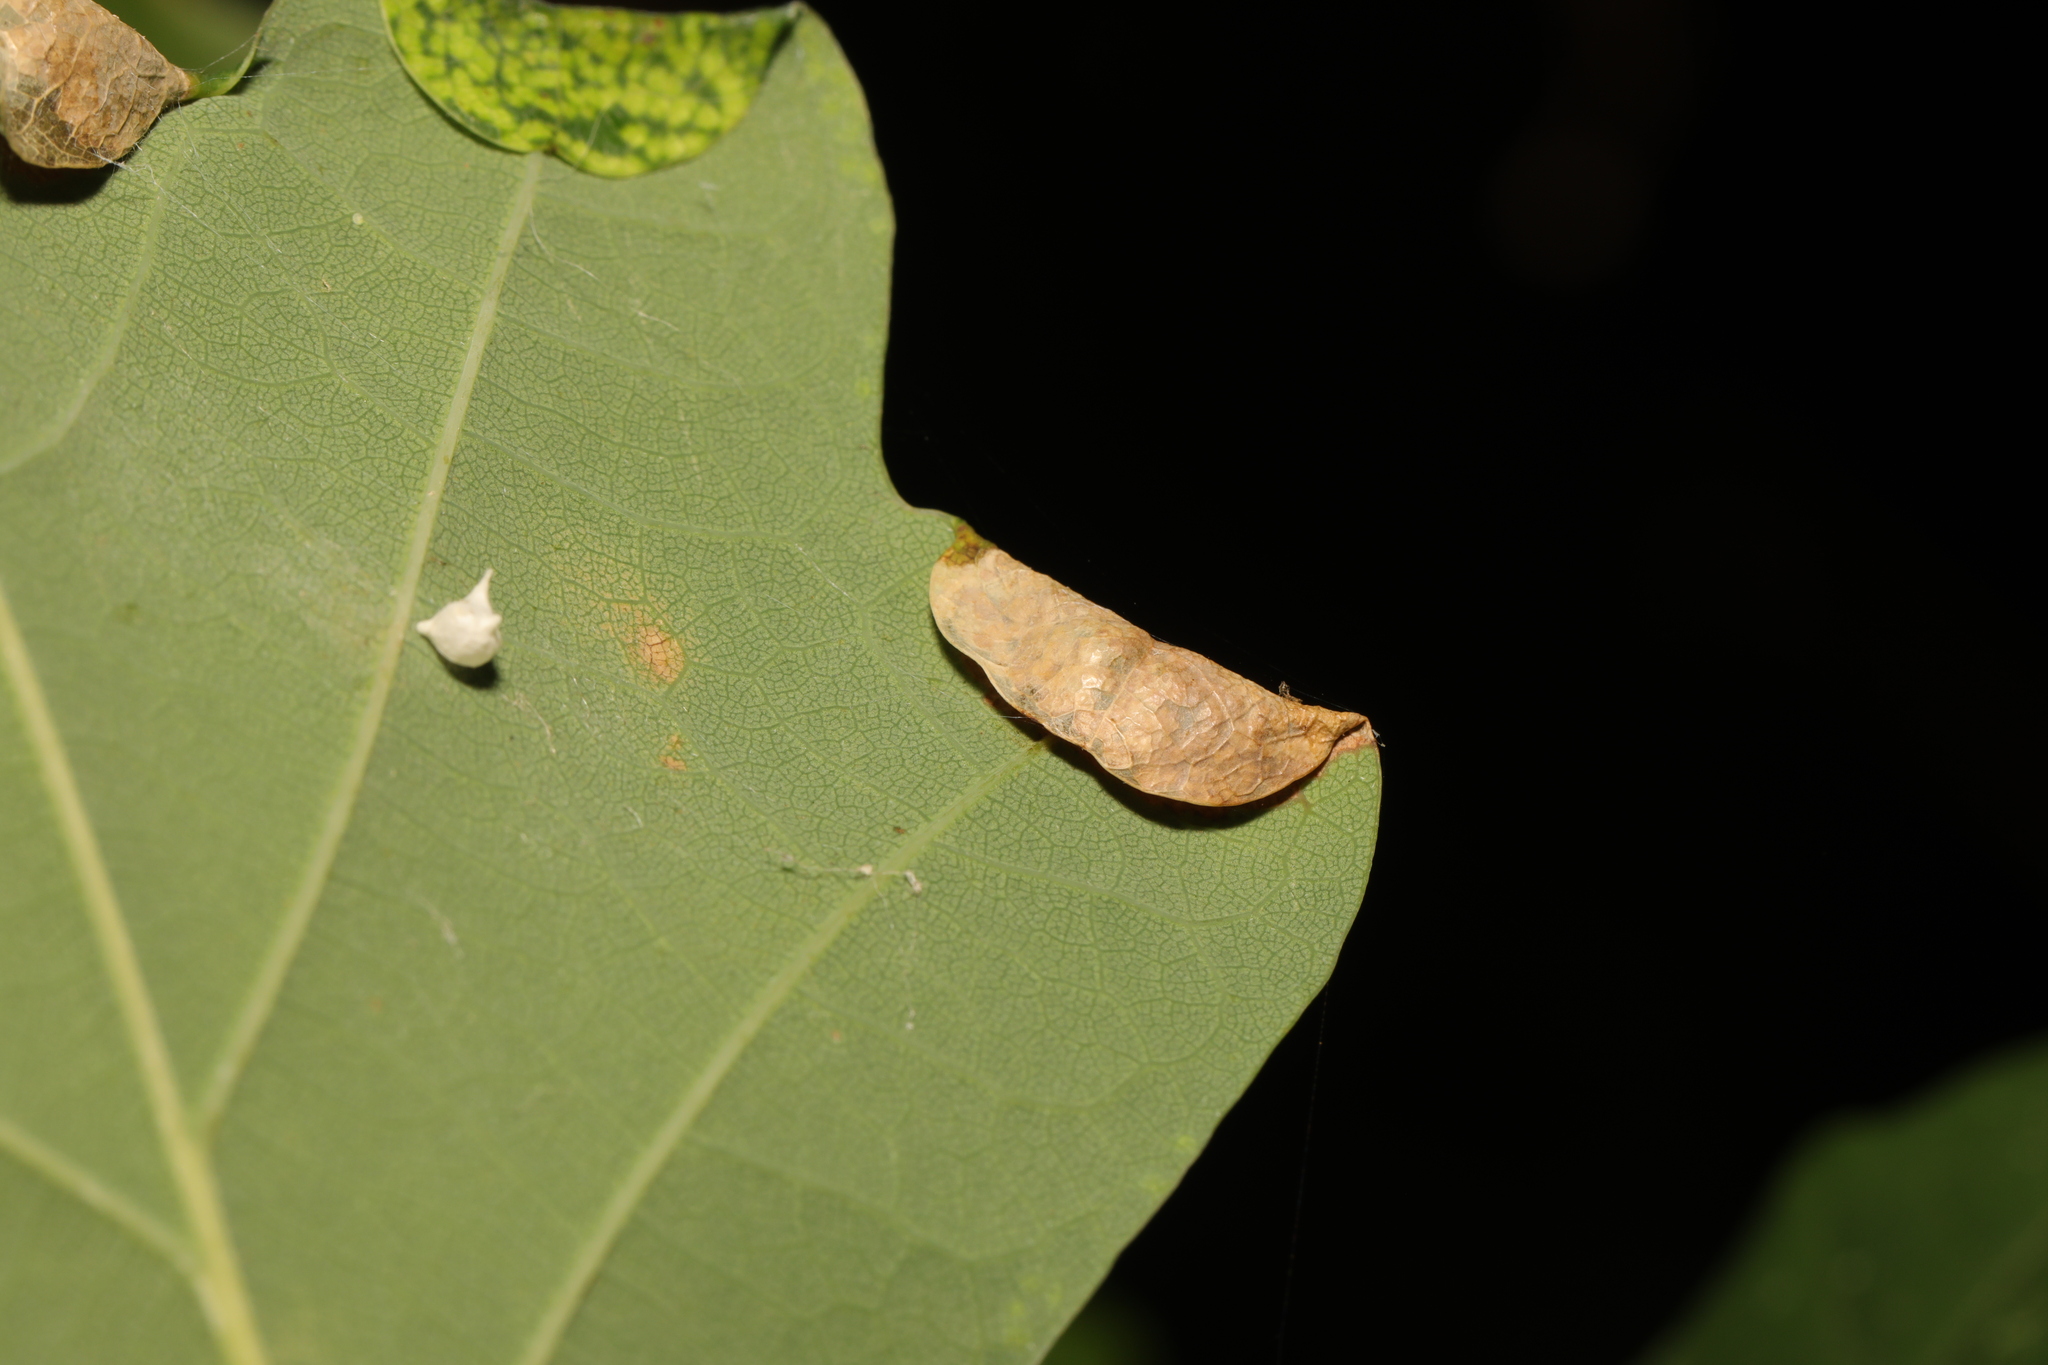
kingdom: Animalia
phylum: Arthropoda
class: Insecta
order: Diptera
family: Cecidomyiidae
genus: Macrodiplosis
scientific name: Macrodiplosis pustularis
